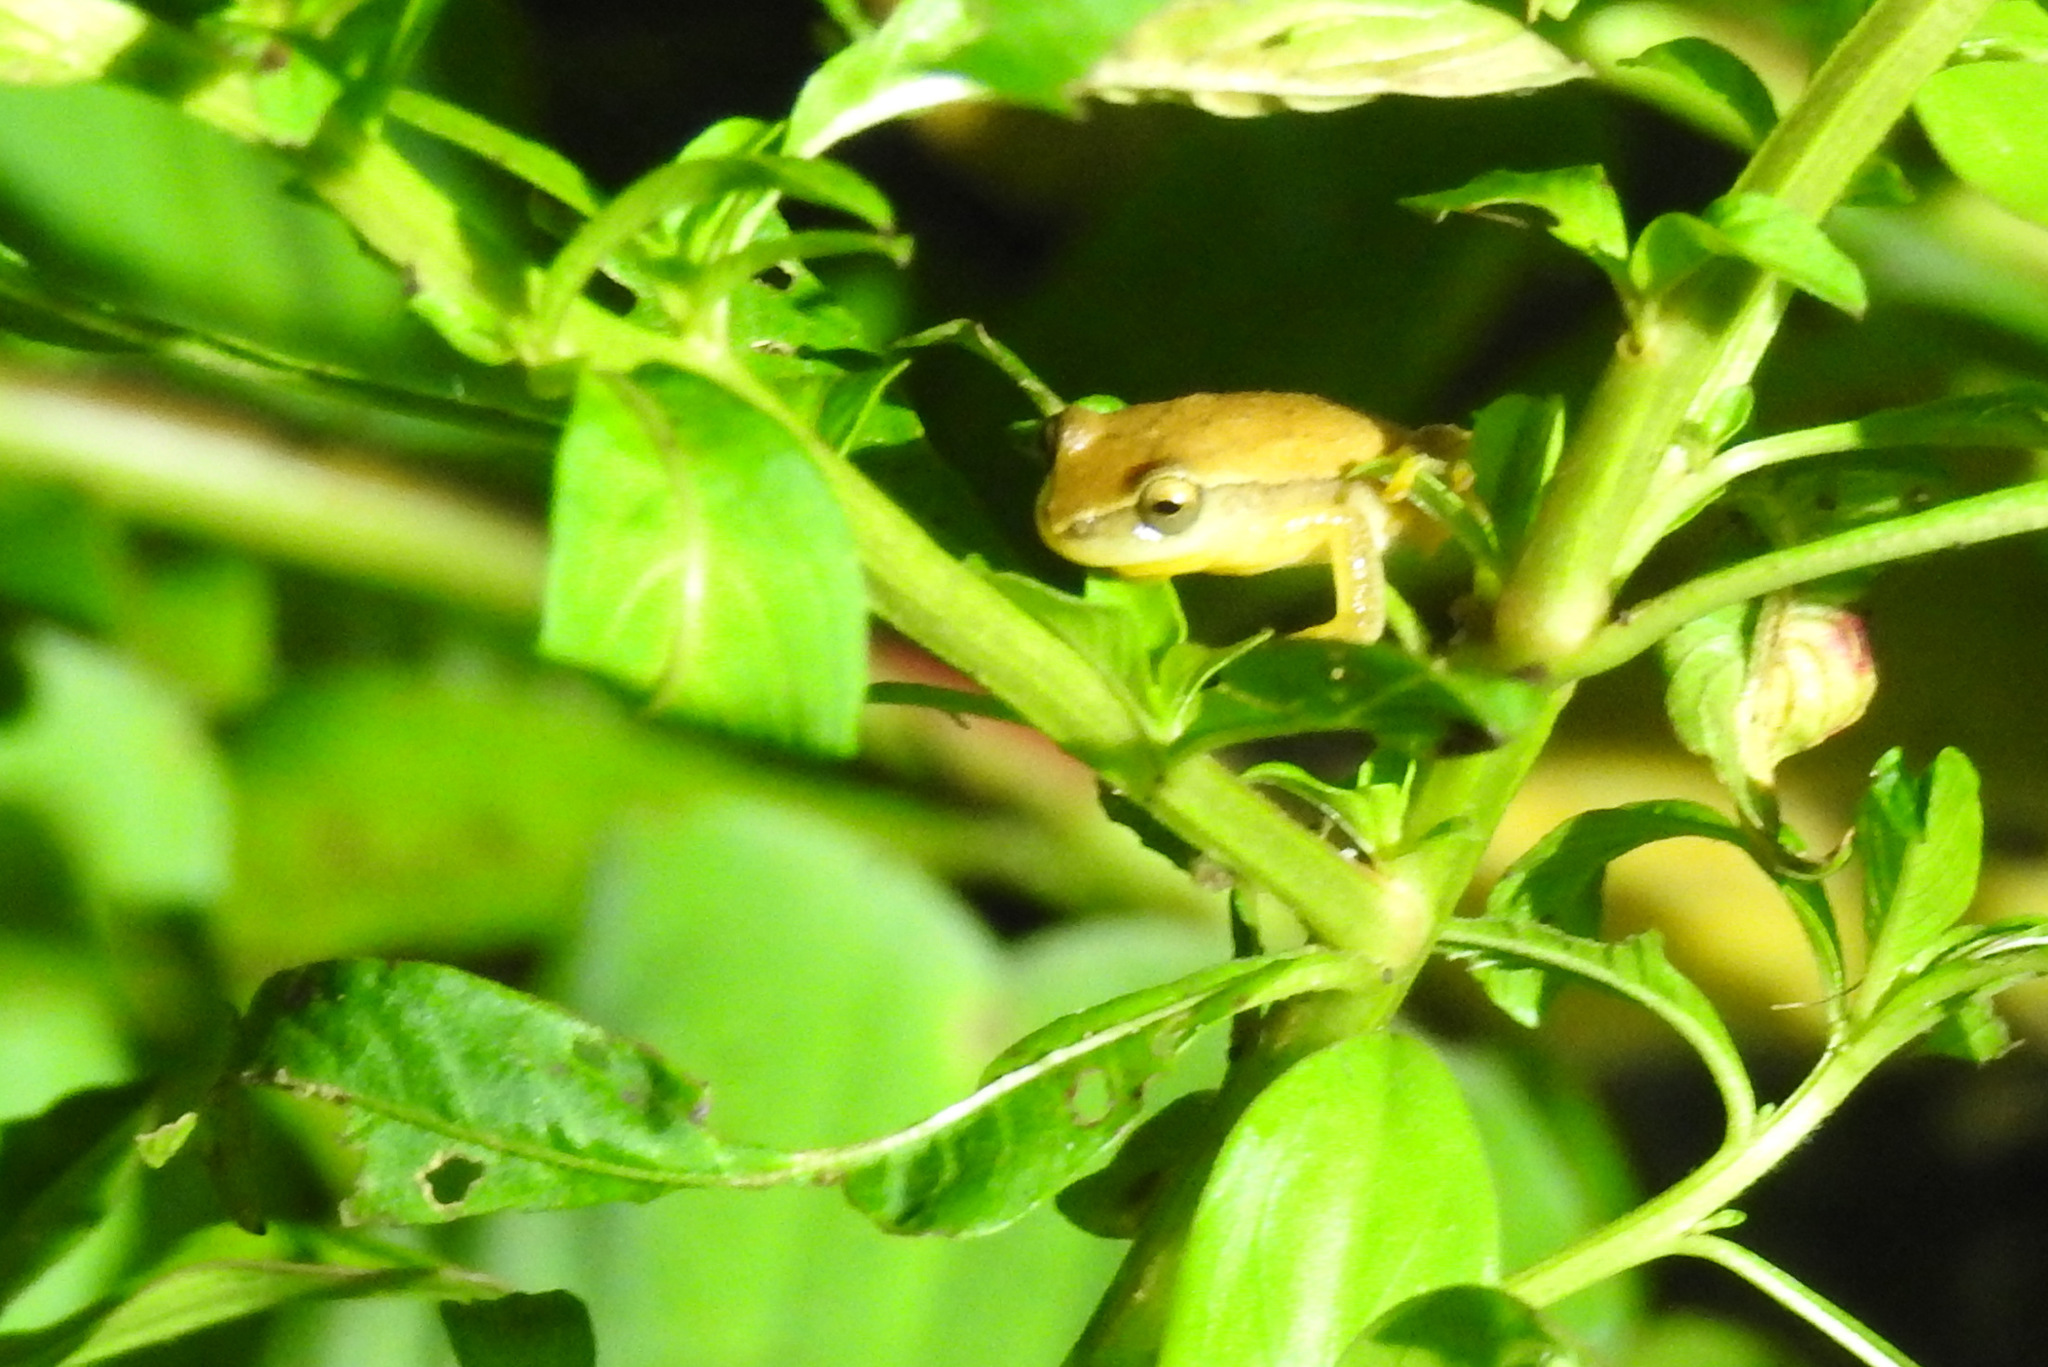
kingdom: Animalia
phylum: Chordata
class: Amphibia
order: Anura
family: Hylidae
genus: Dendropsophus
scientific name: Dendropsophus nanus
